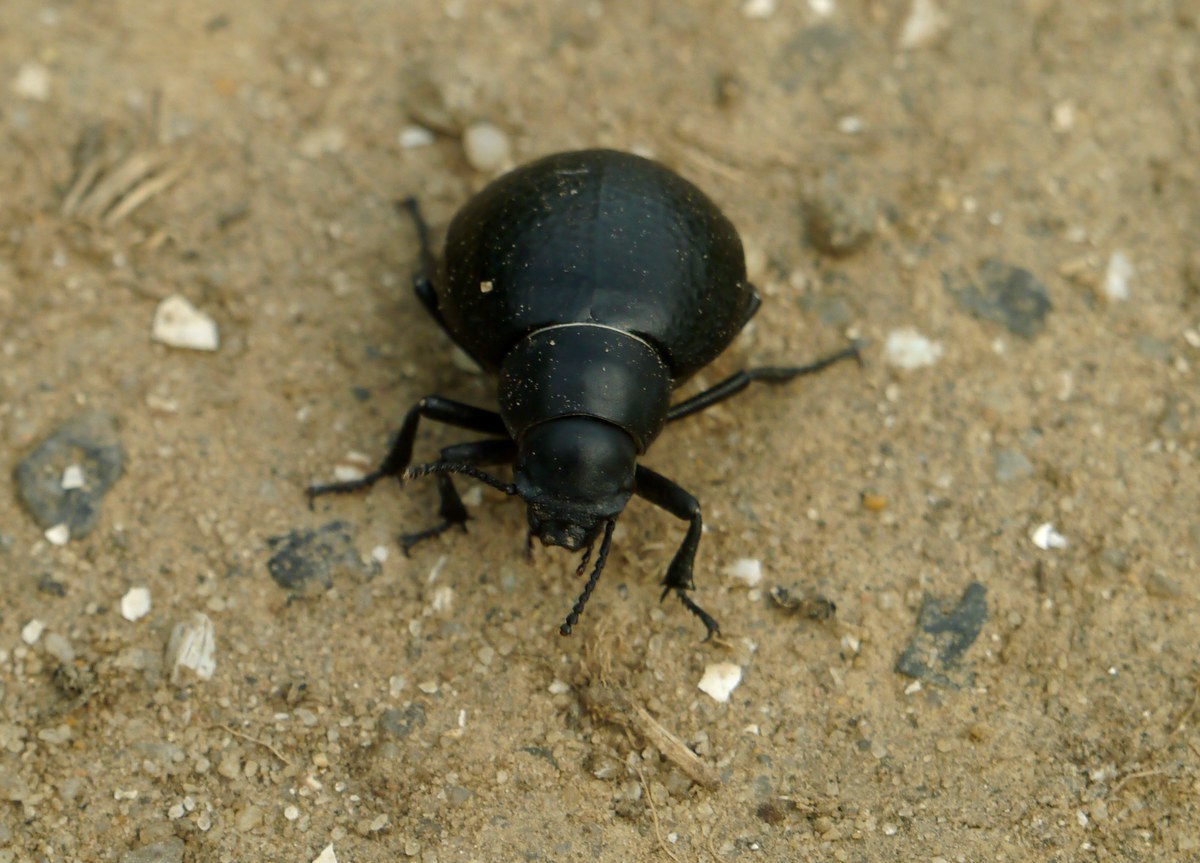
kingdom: Animalia
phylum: Arthropoda
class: Insecta
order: Coleoptera
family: Tenebrionidae
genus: Pimelia
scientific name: Pimelia subglobosa
